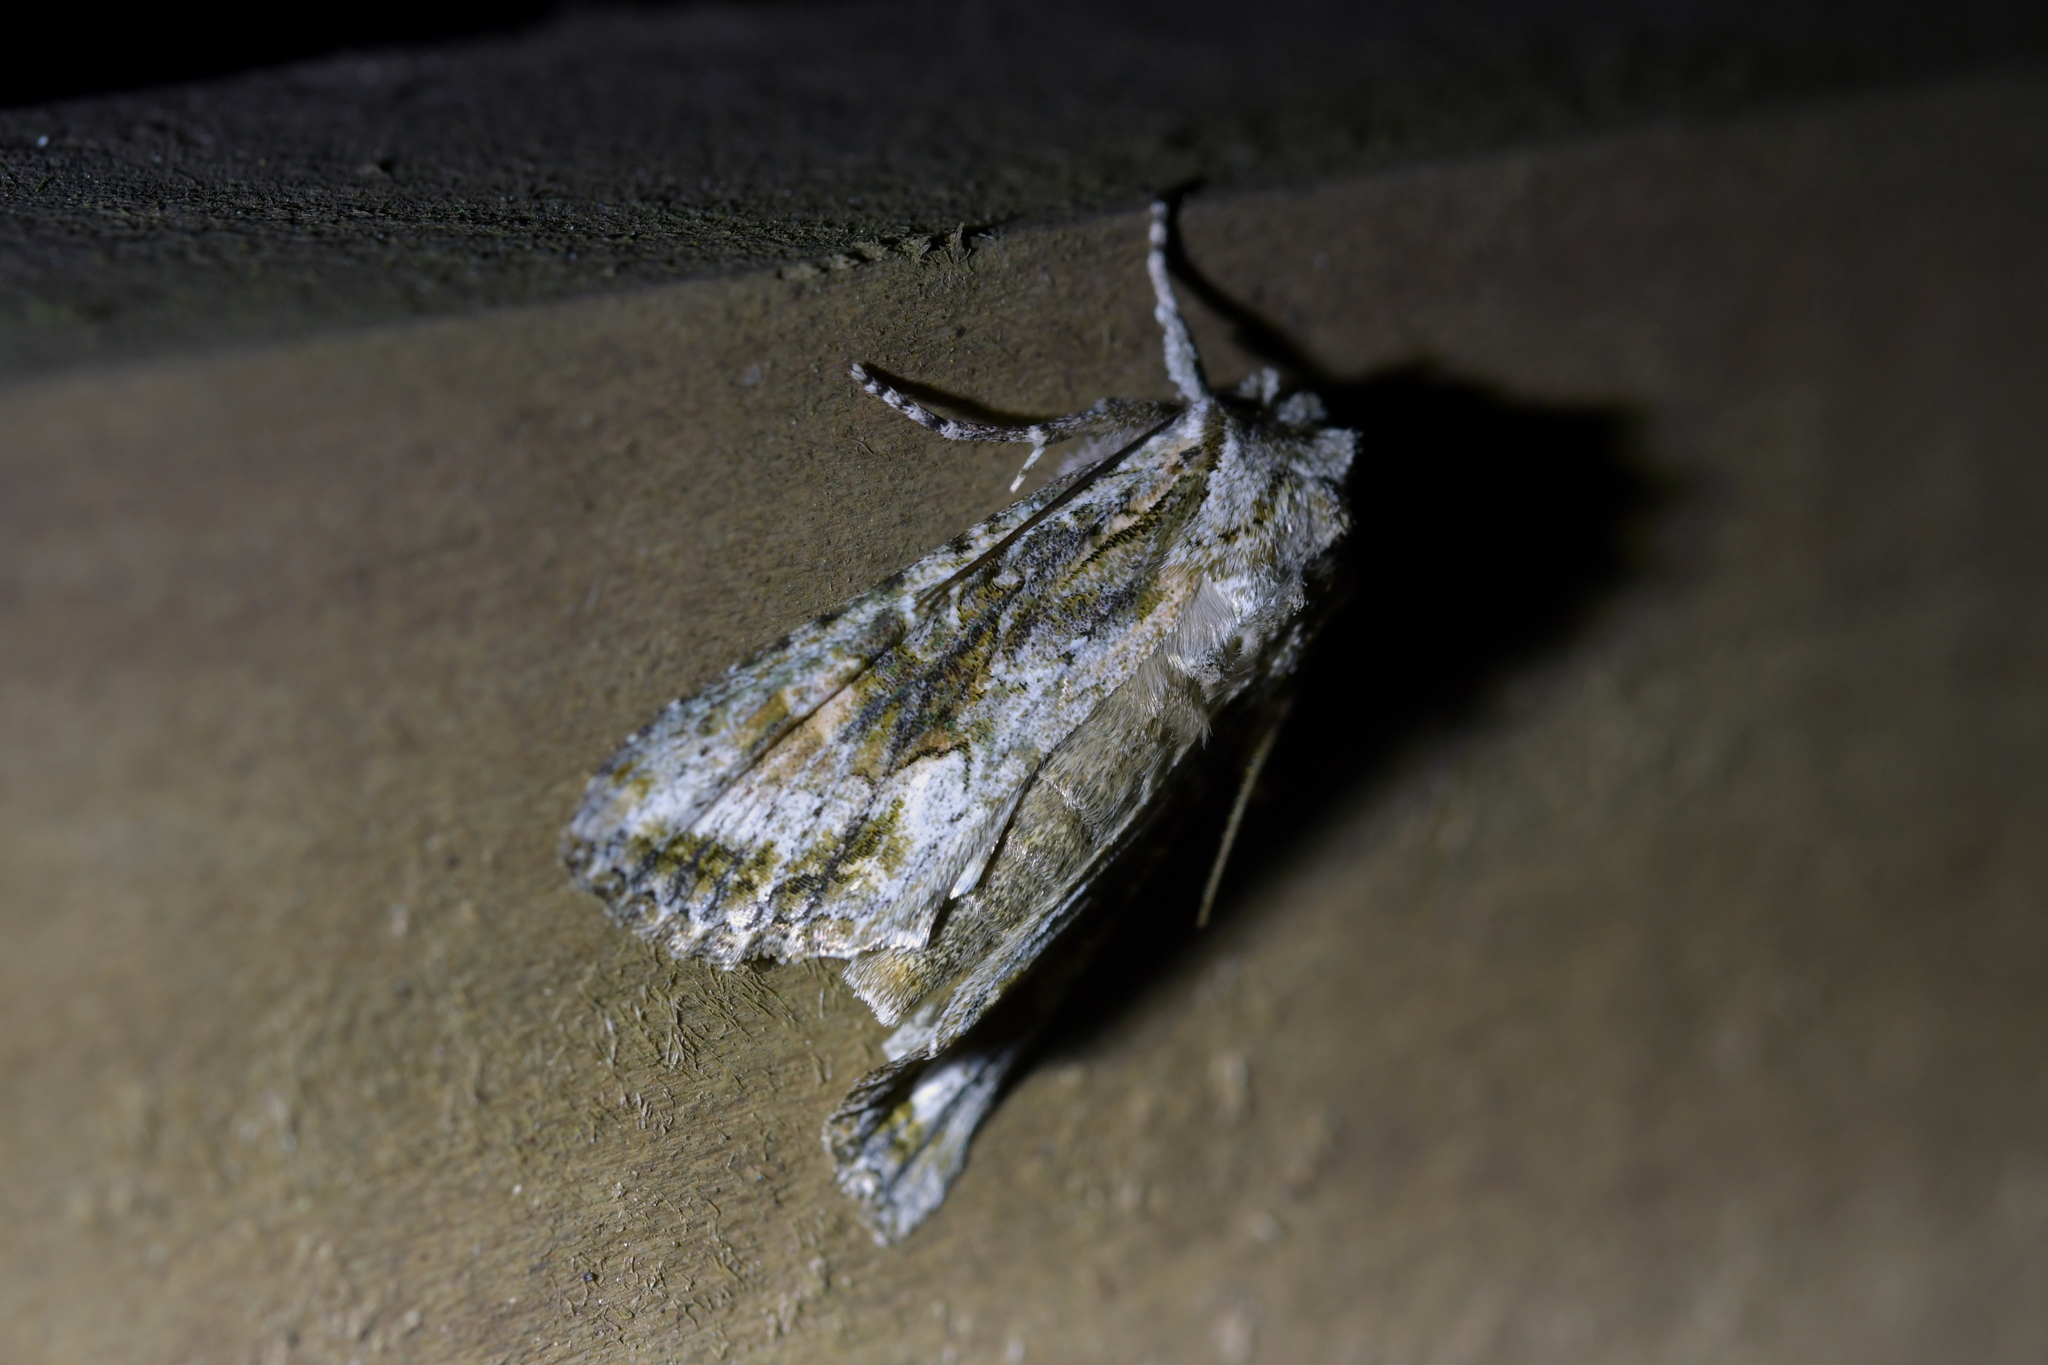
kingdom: Animalia
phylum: Arthropoda
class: Insecta
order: Lepidoptera
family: Noctuidae
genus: Ichneutica
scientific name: Ichneutica mutans
